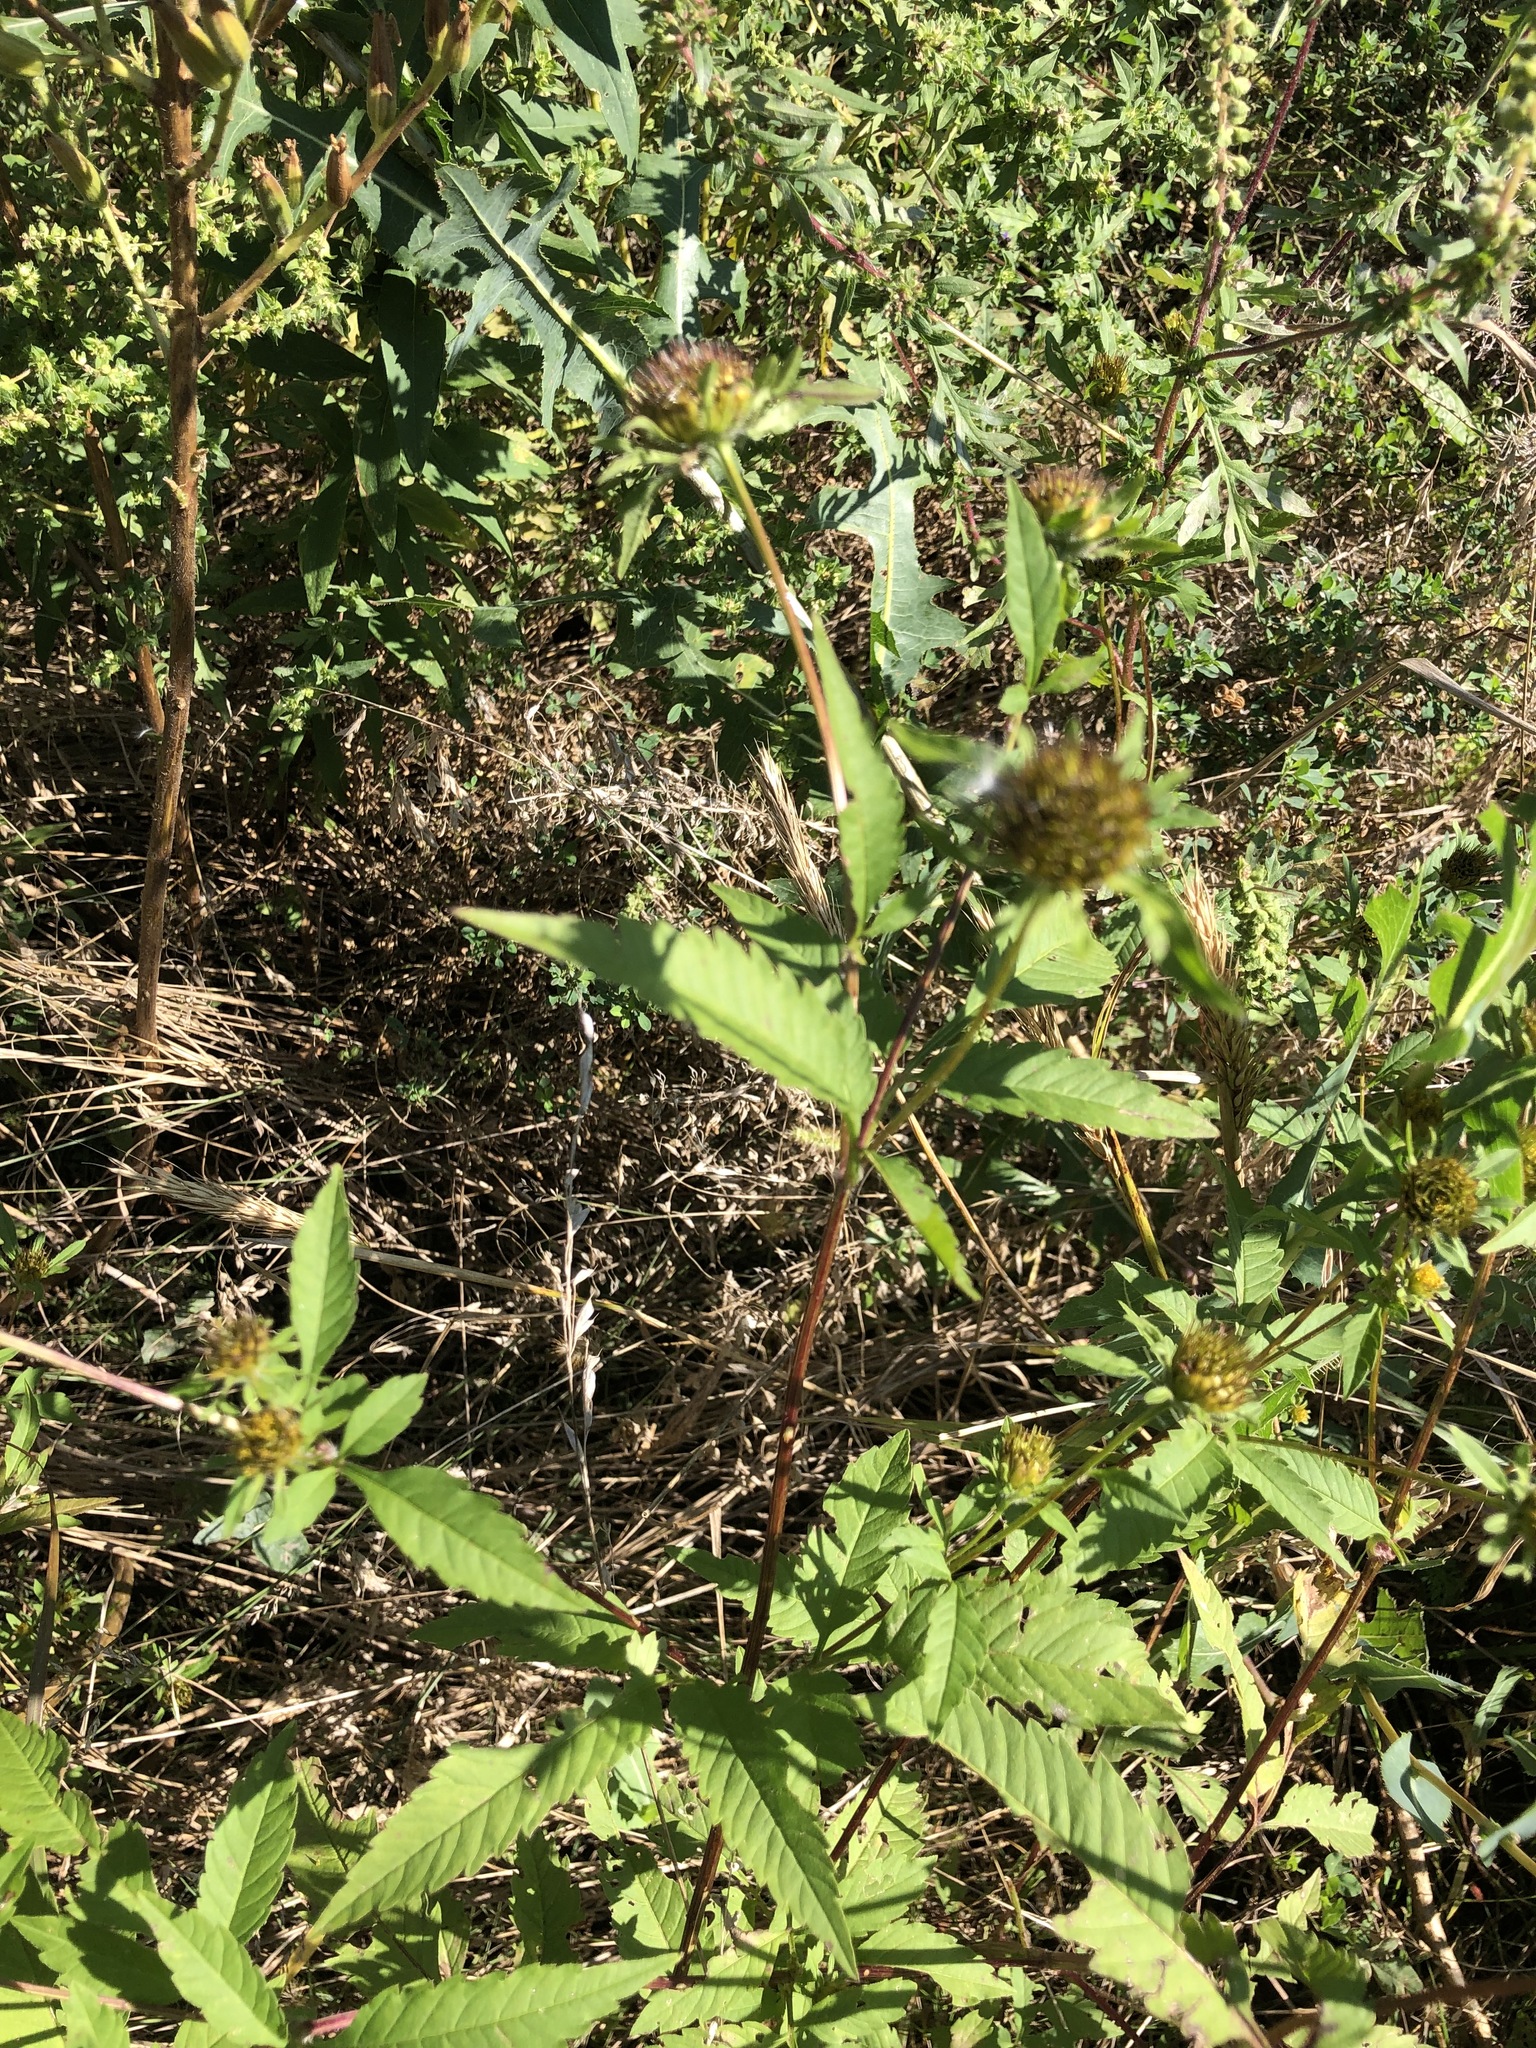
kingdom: Plantae
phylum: Tracheophyta
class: Magnoliopsida
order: Asterales
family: Asteraceae
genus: Bidens
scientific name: Bidens vulgata
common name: Tall beggarticks
